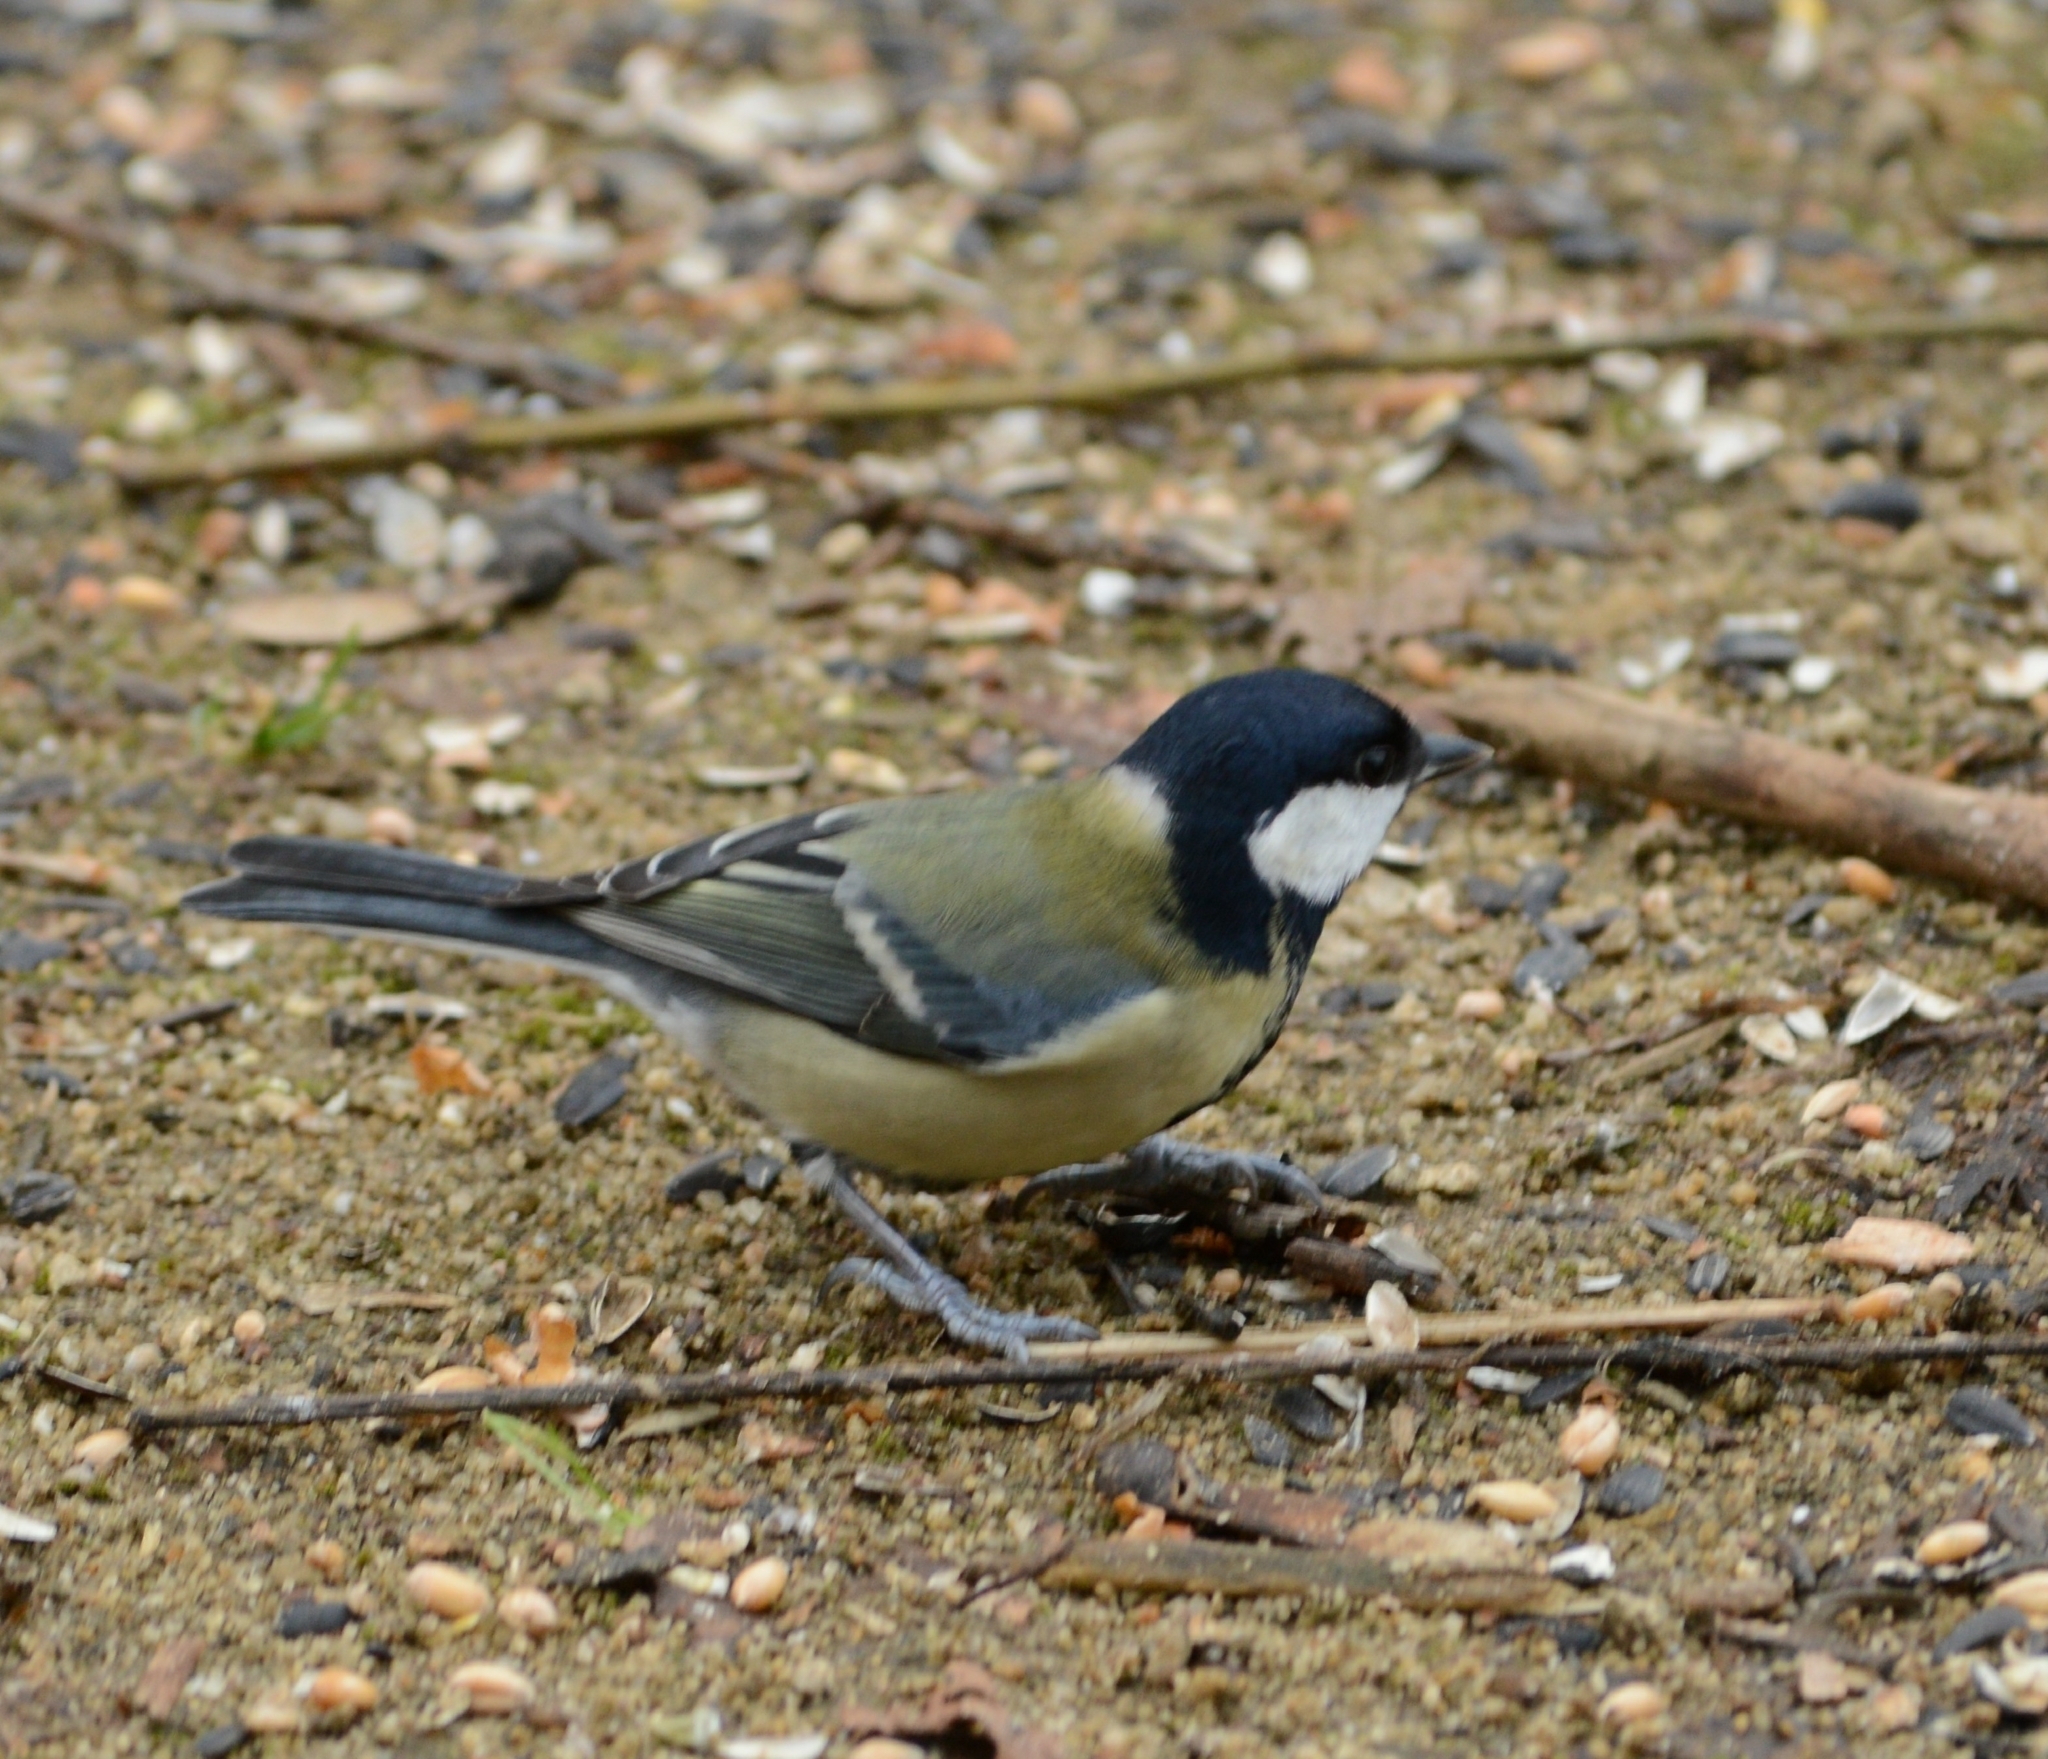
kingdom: Animalia
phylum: Chordata
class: Aves
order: Passeriformes
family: Paridae
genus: Parus
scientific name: Parus major
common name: Great tit
